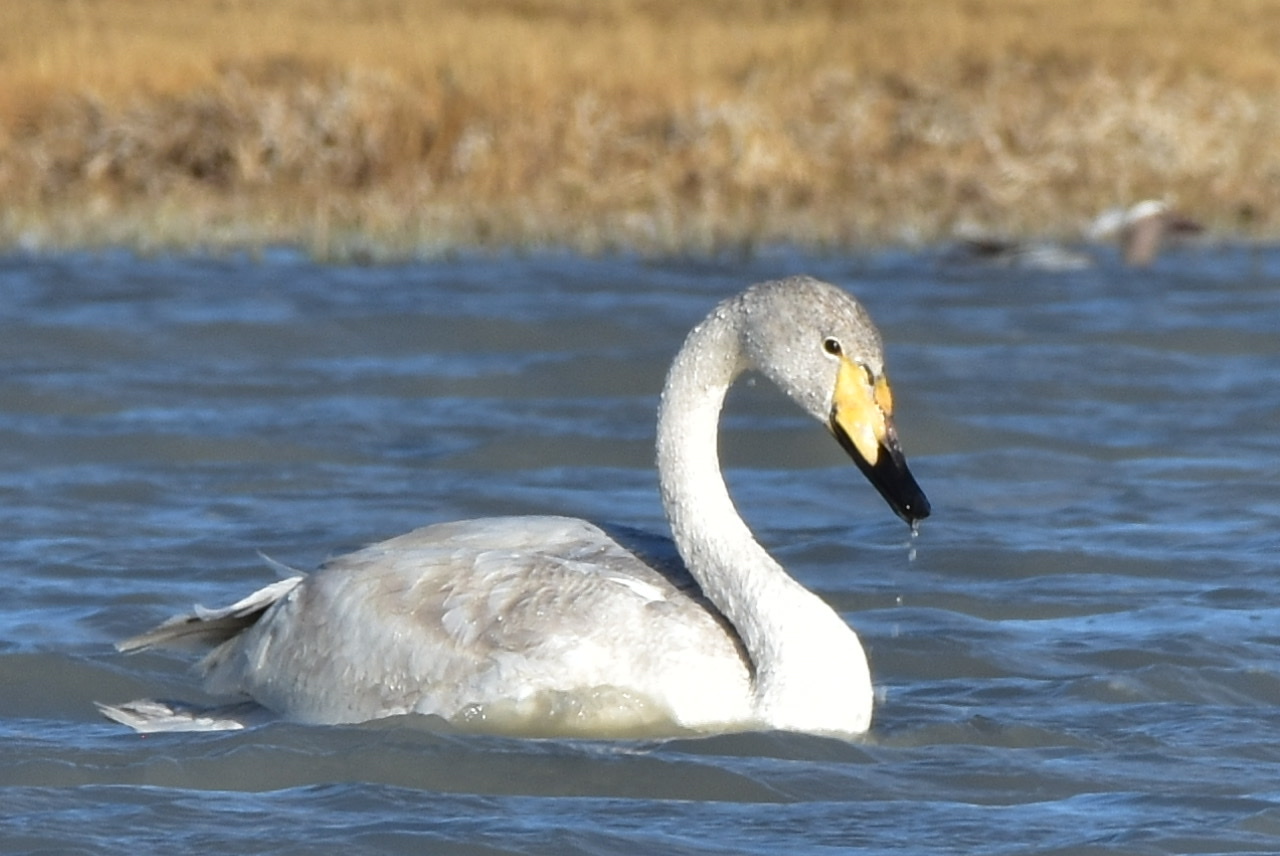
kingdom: Animalia
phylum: Chordata
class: Aves
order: Anseriformes
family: Anatidae
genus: Cygnus
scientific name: Cygnus cygnus
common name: Whooper swan
